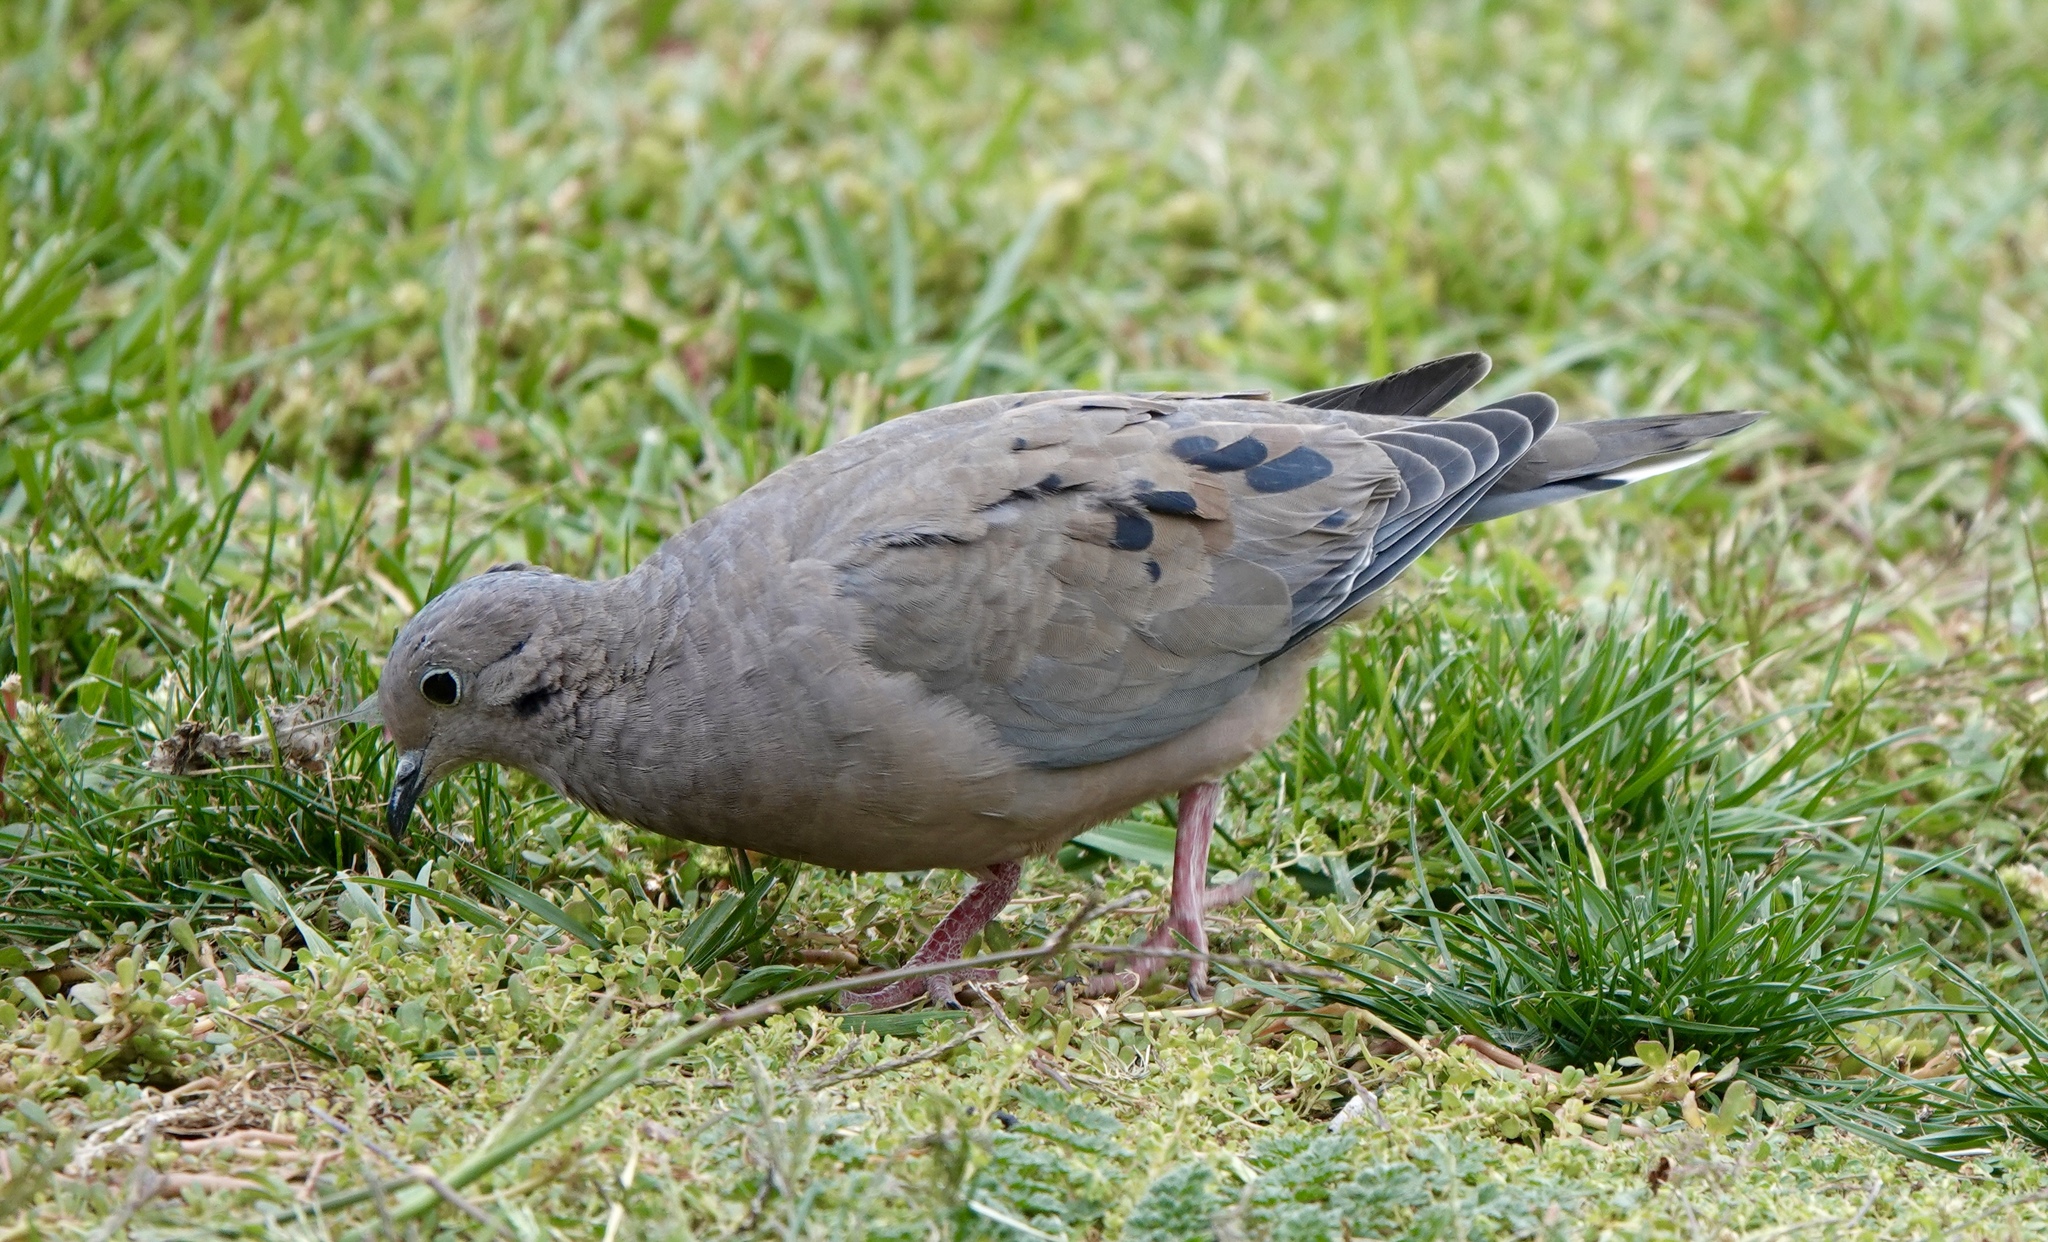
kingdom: Animalia
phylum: Chordata
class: Aves
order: Columbiformes
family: Columbidae
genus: Zenaida
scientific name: Zenaida auriculata
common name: Eared dove
